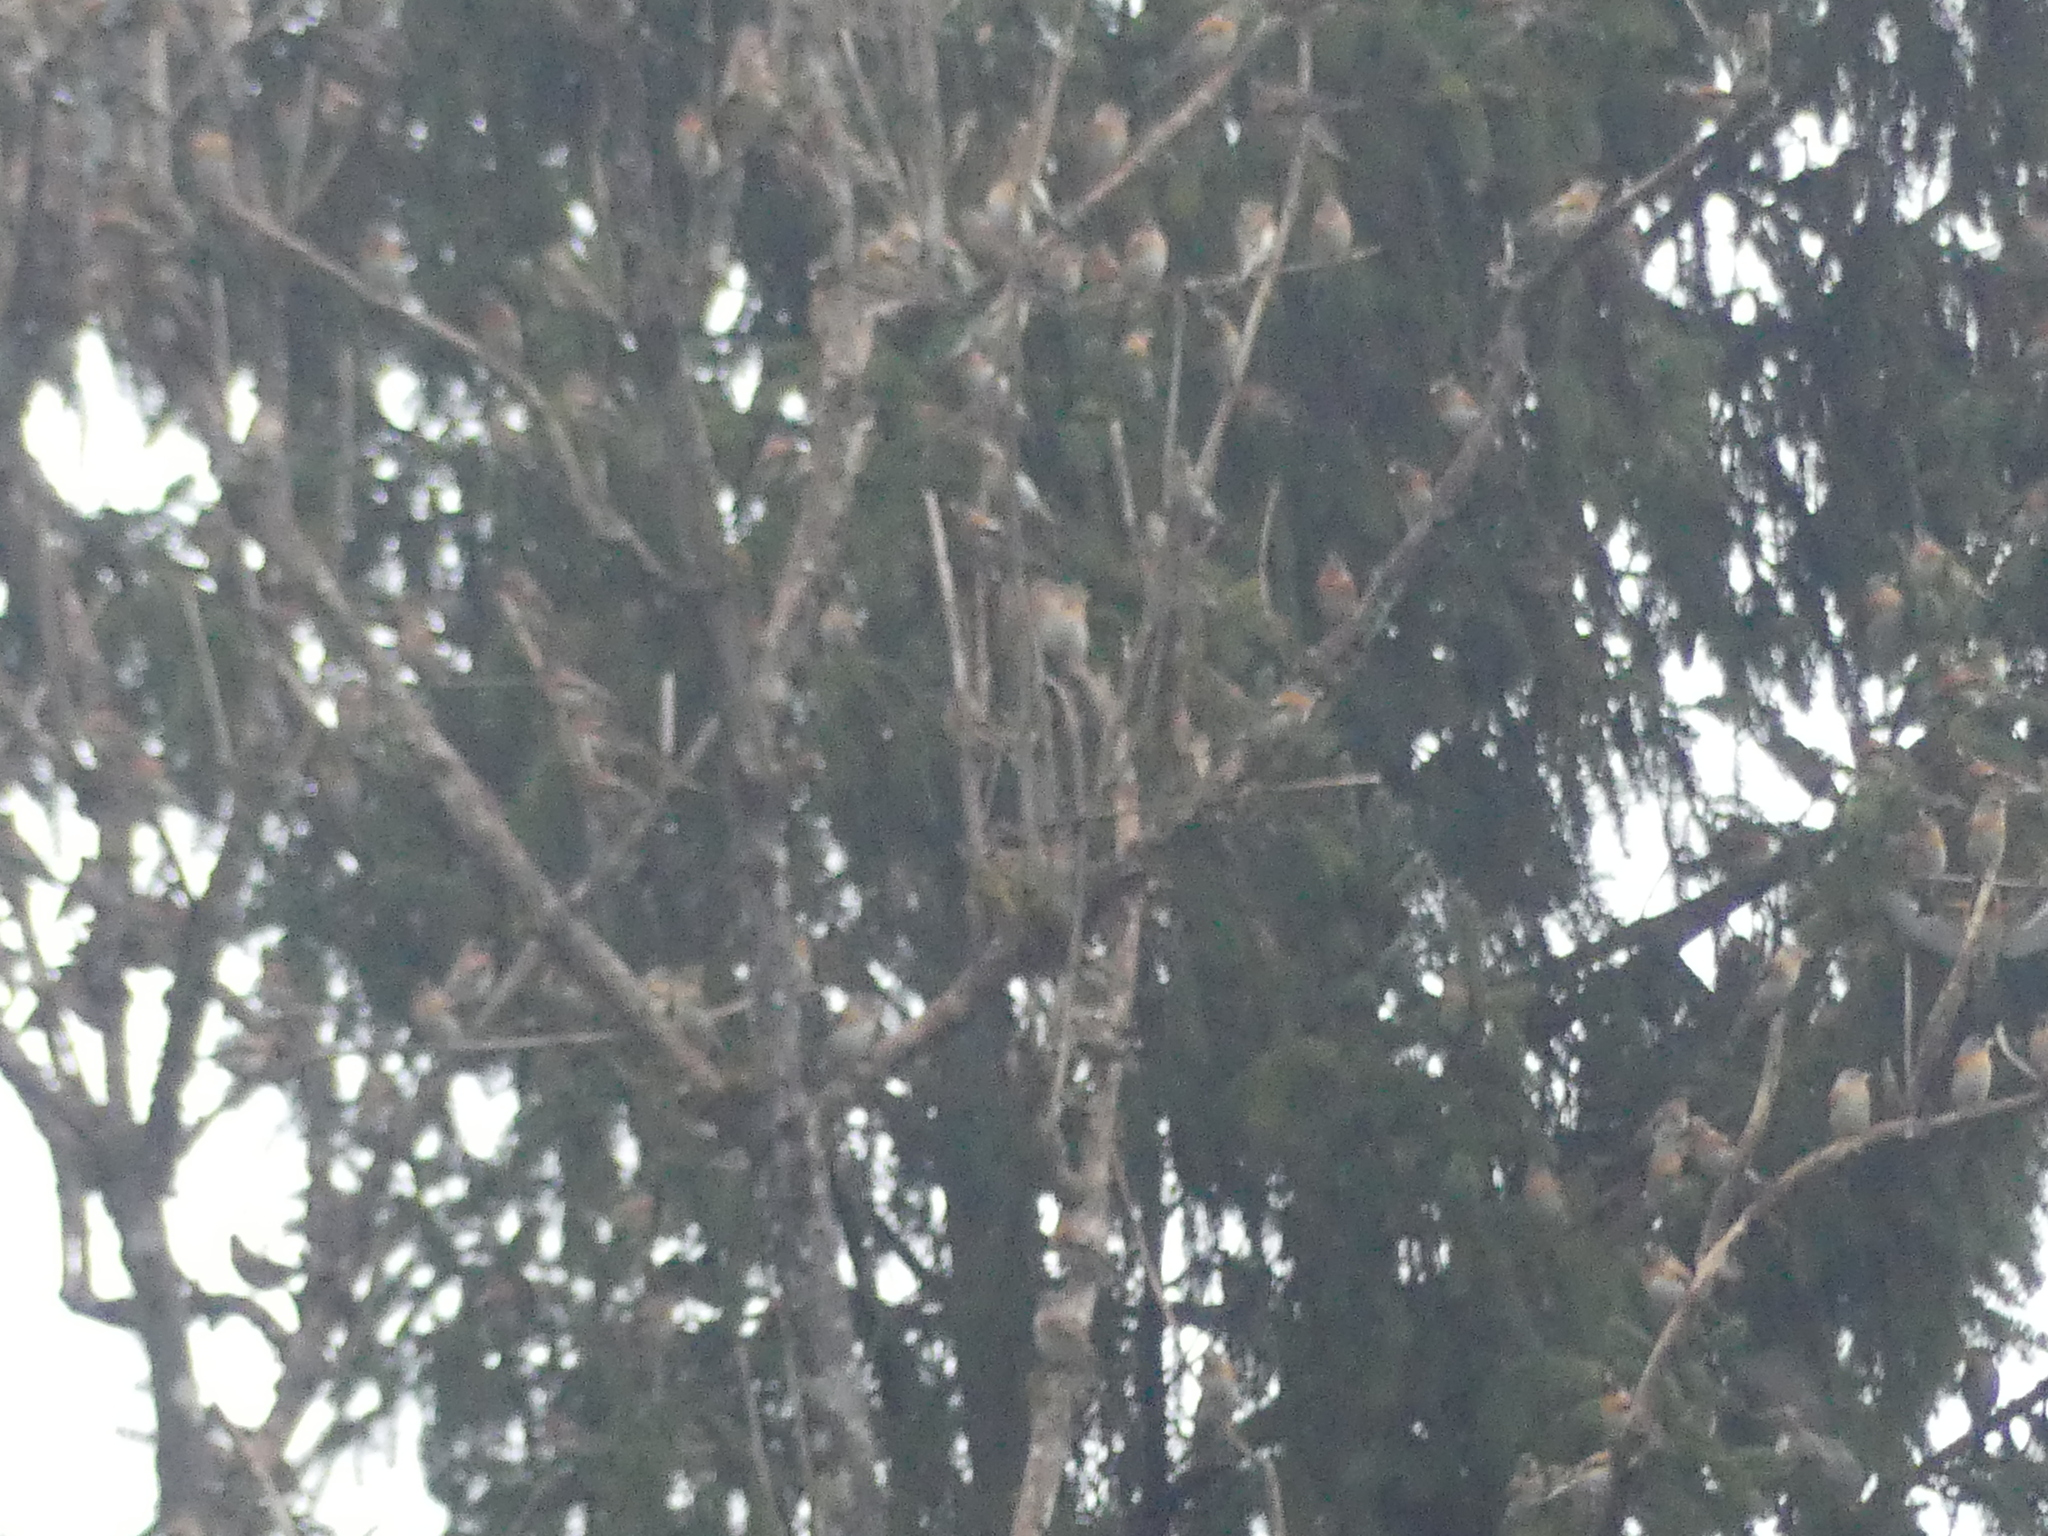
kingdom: Animalia
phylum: Chordata
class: Aves
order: Passeriformes
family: Fringillidae
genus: Fringilla
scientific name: Fringilla montifringilla
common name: Brambling
